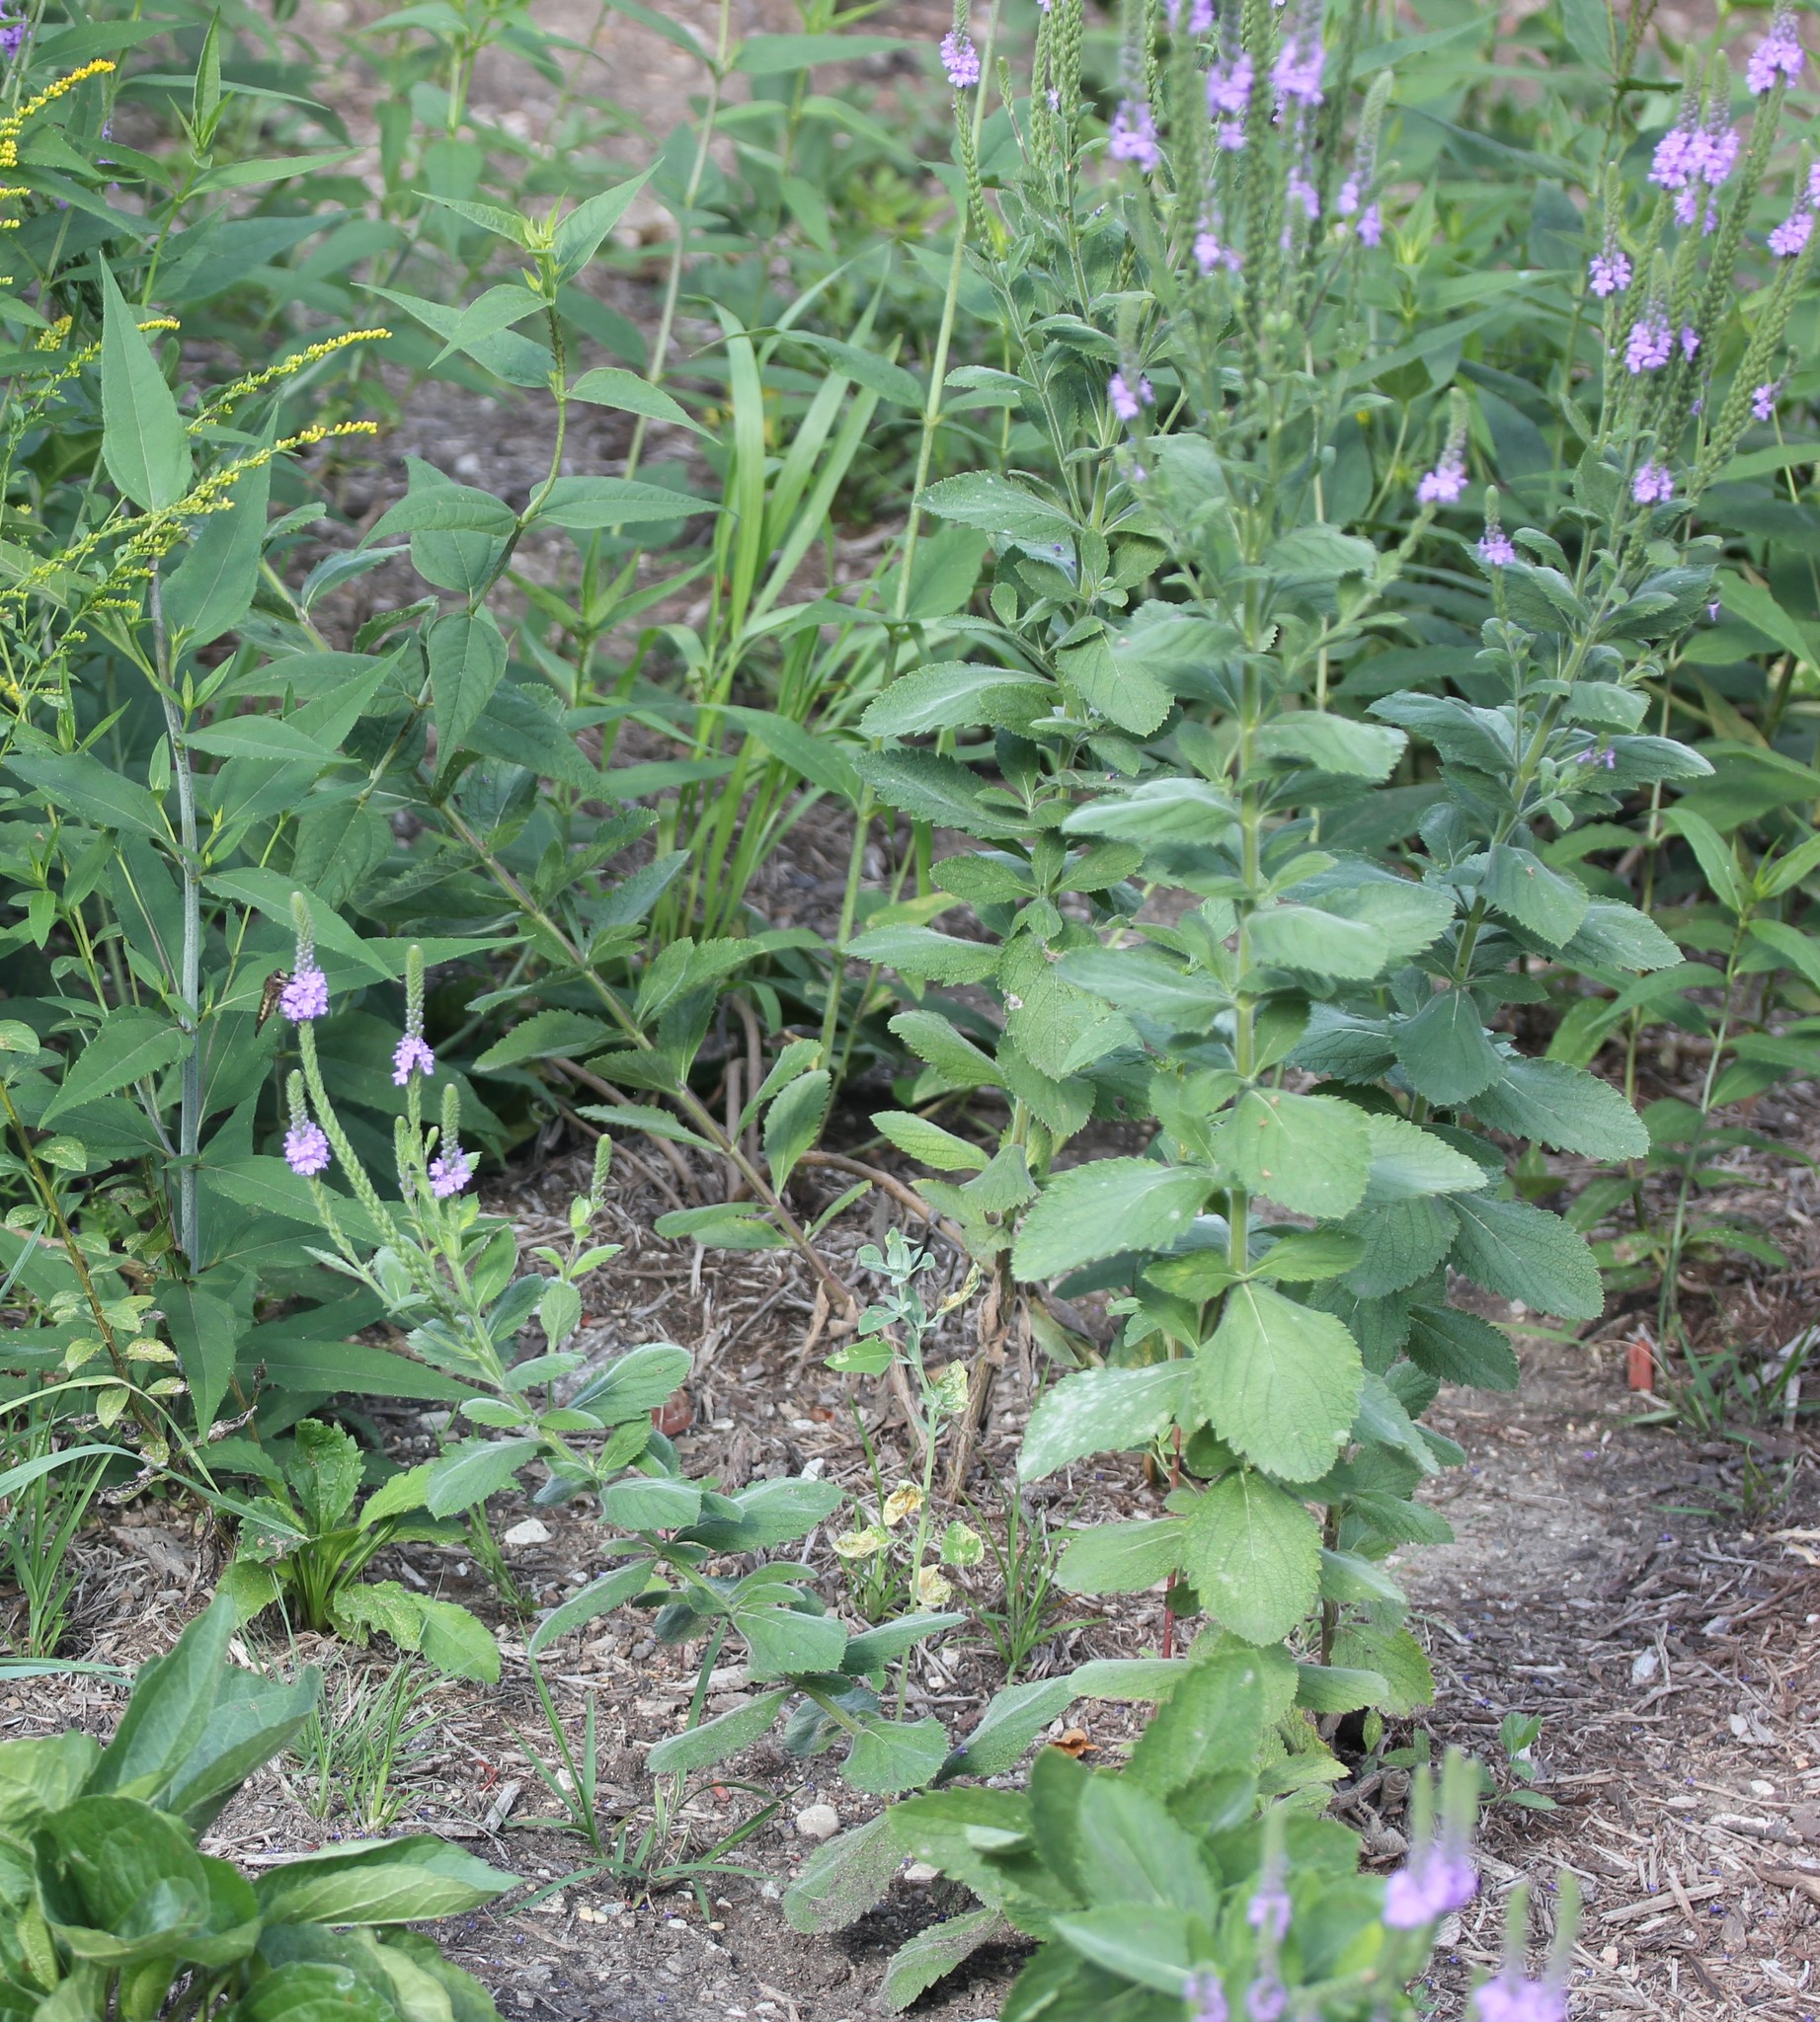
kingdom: Plantae
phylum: Tracheophyta
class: Magnoliopsida
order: Lamiales
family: Verbenaceae
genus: Verbena
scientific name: Verbena stricta
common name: Hoary vervain
